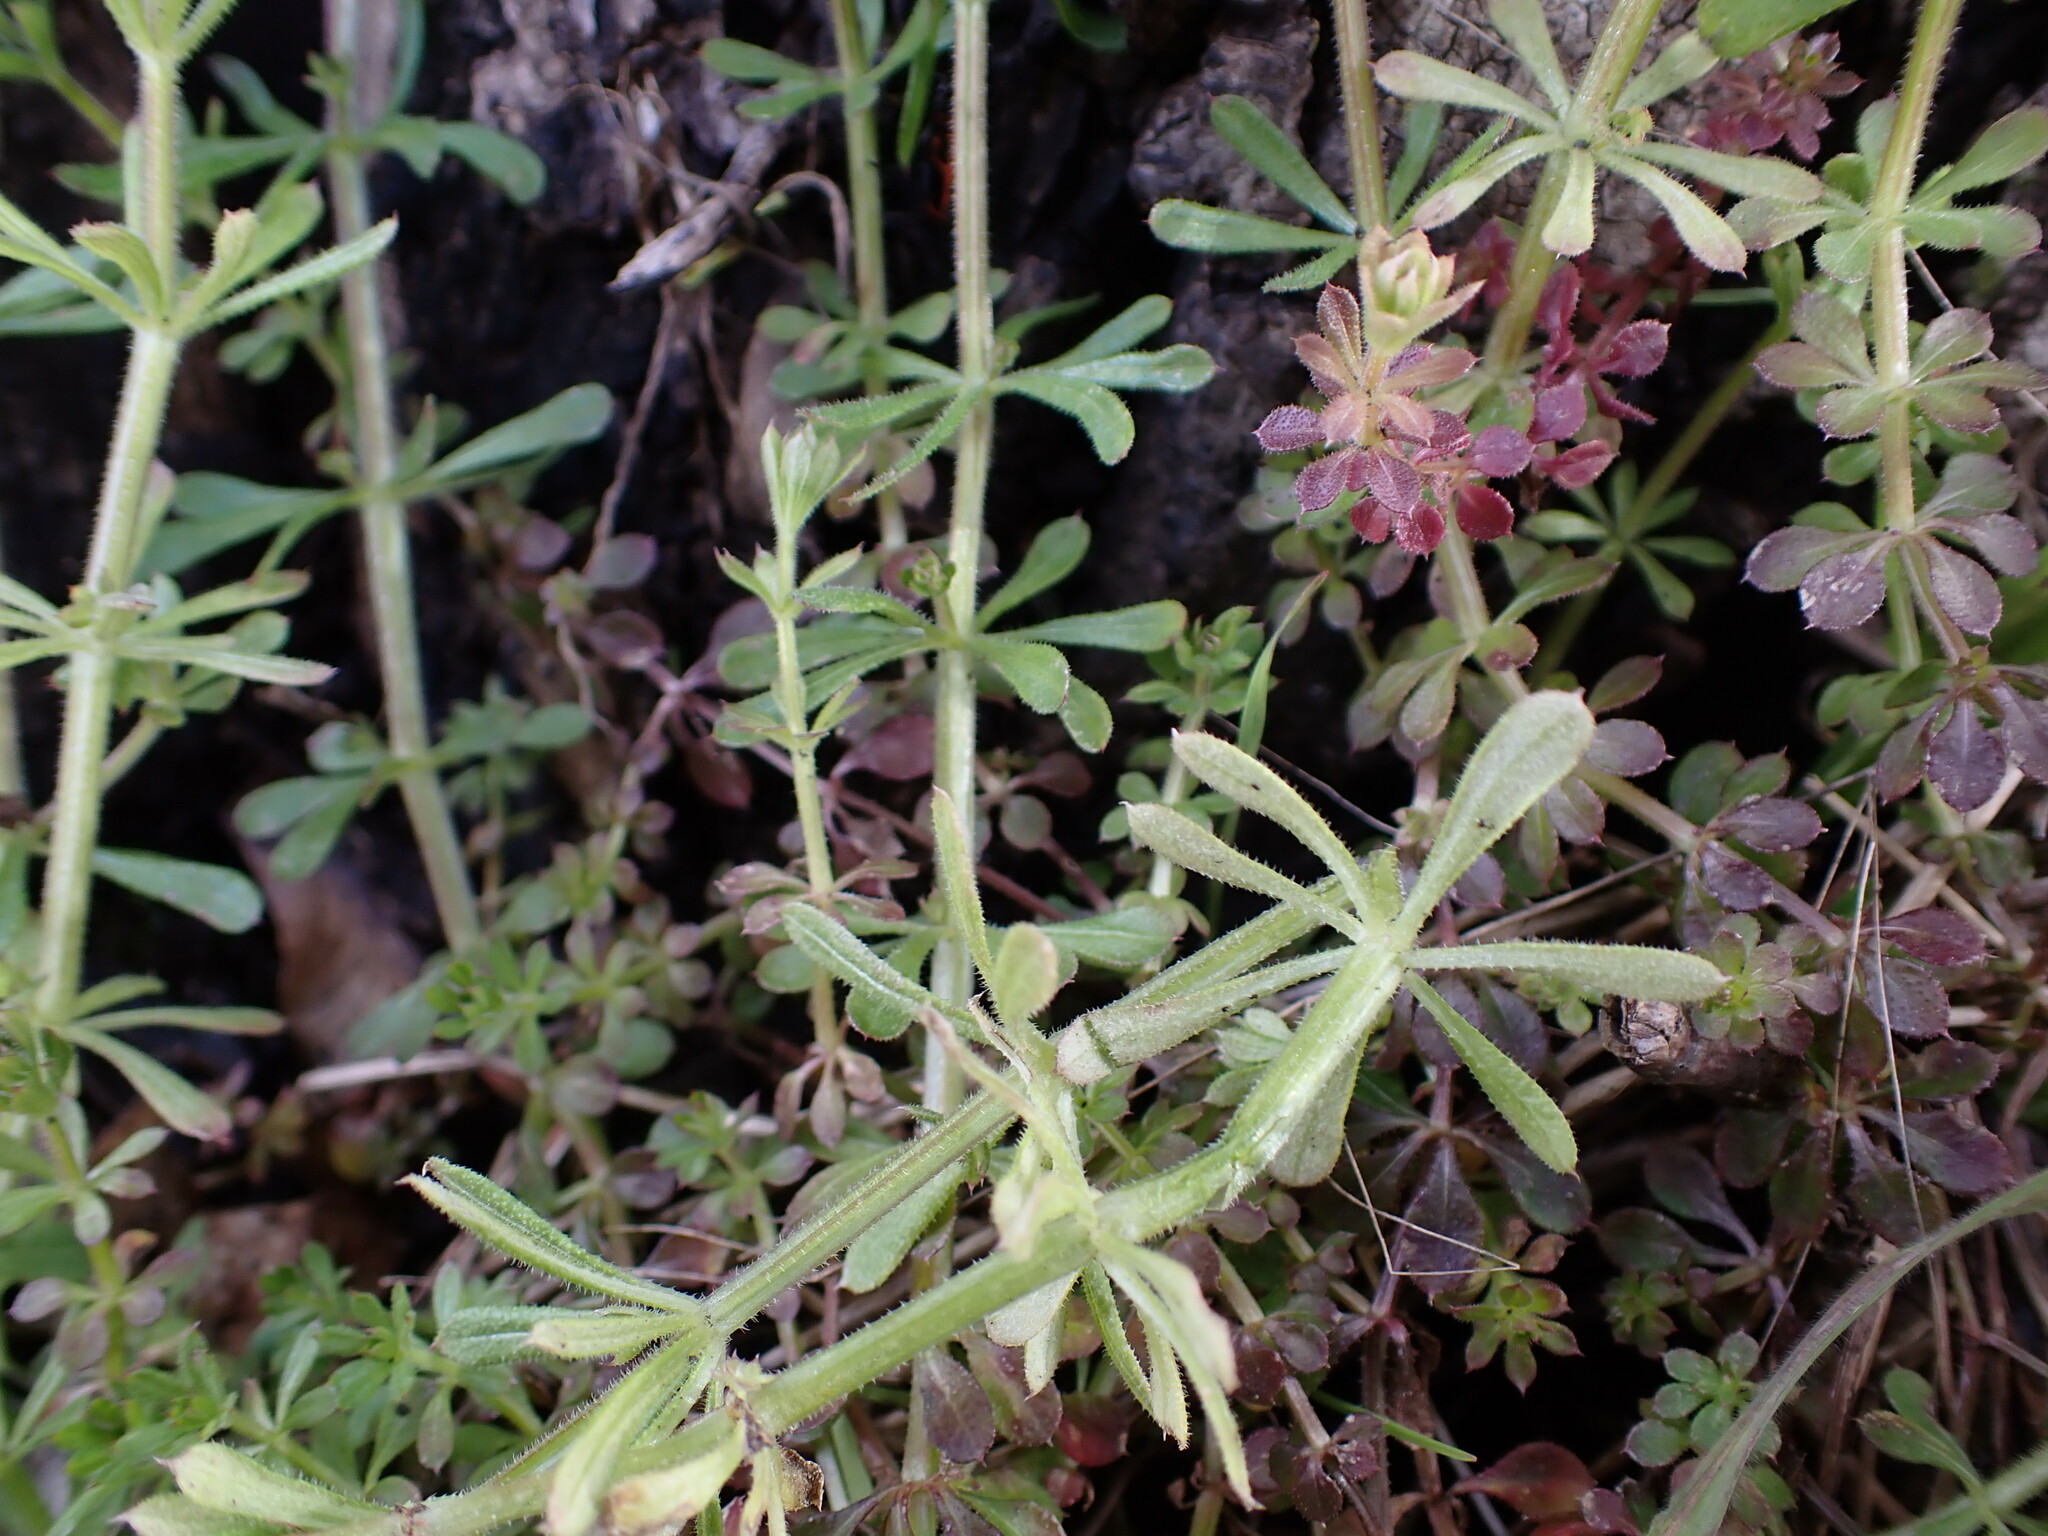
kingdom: Chromista
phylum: Oomycota
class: Peronosporea
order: Peronosporales
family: Peronosporaceae
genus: Peronospora
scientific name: Peronospora aparines
